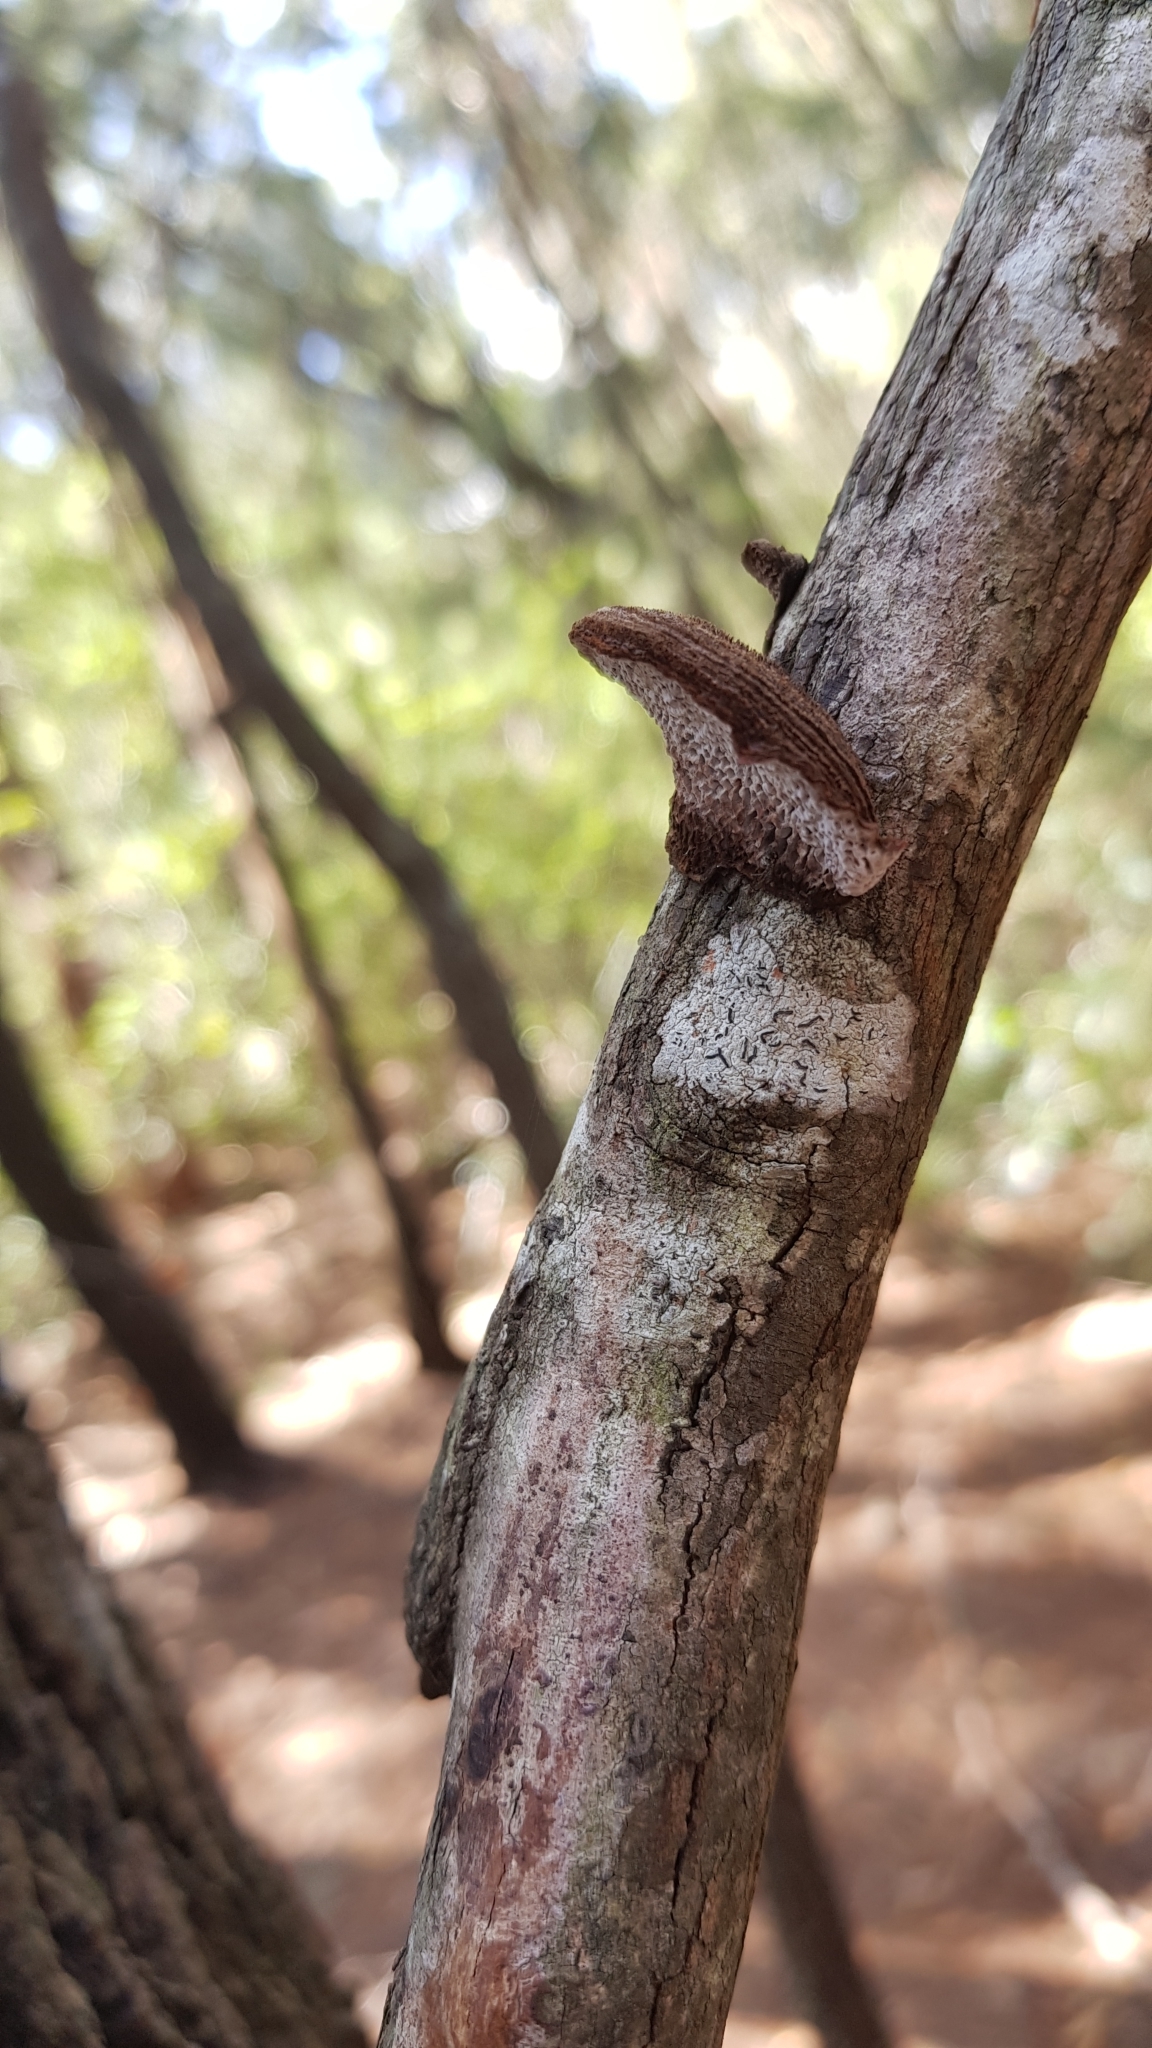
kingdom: Fungi
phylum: Basidiomycota
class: Agaricomycetes
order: Polyporales
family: Polyporaceae
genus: Phaeotrametes
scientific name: Phaeotrametes decipiens
